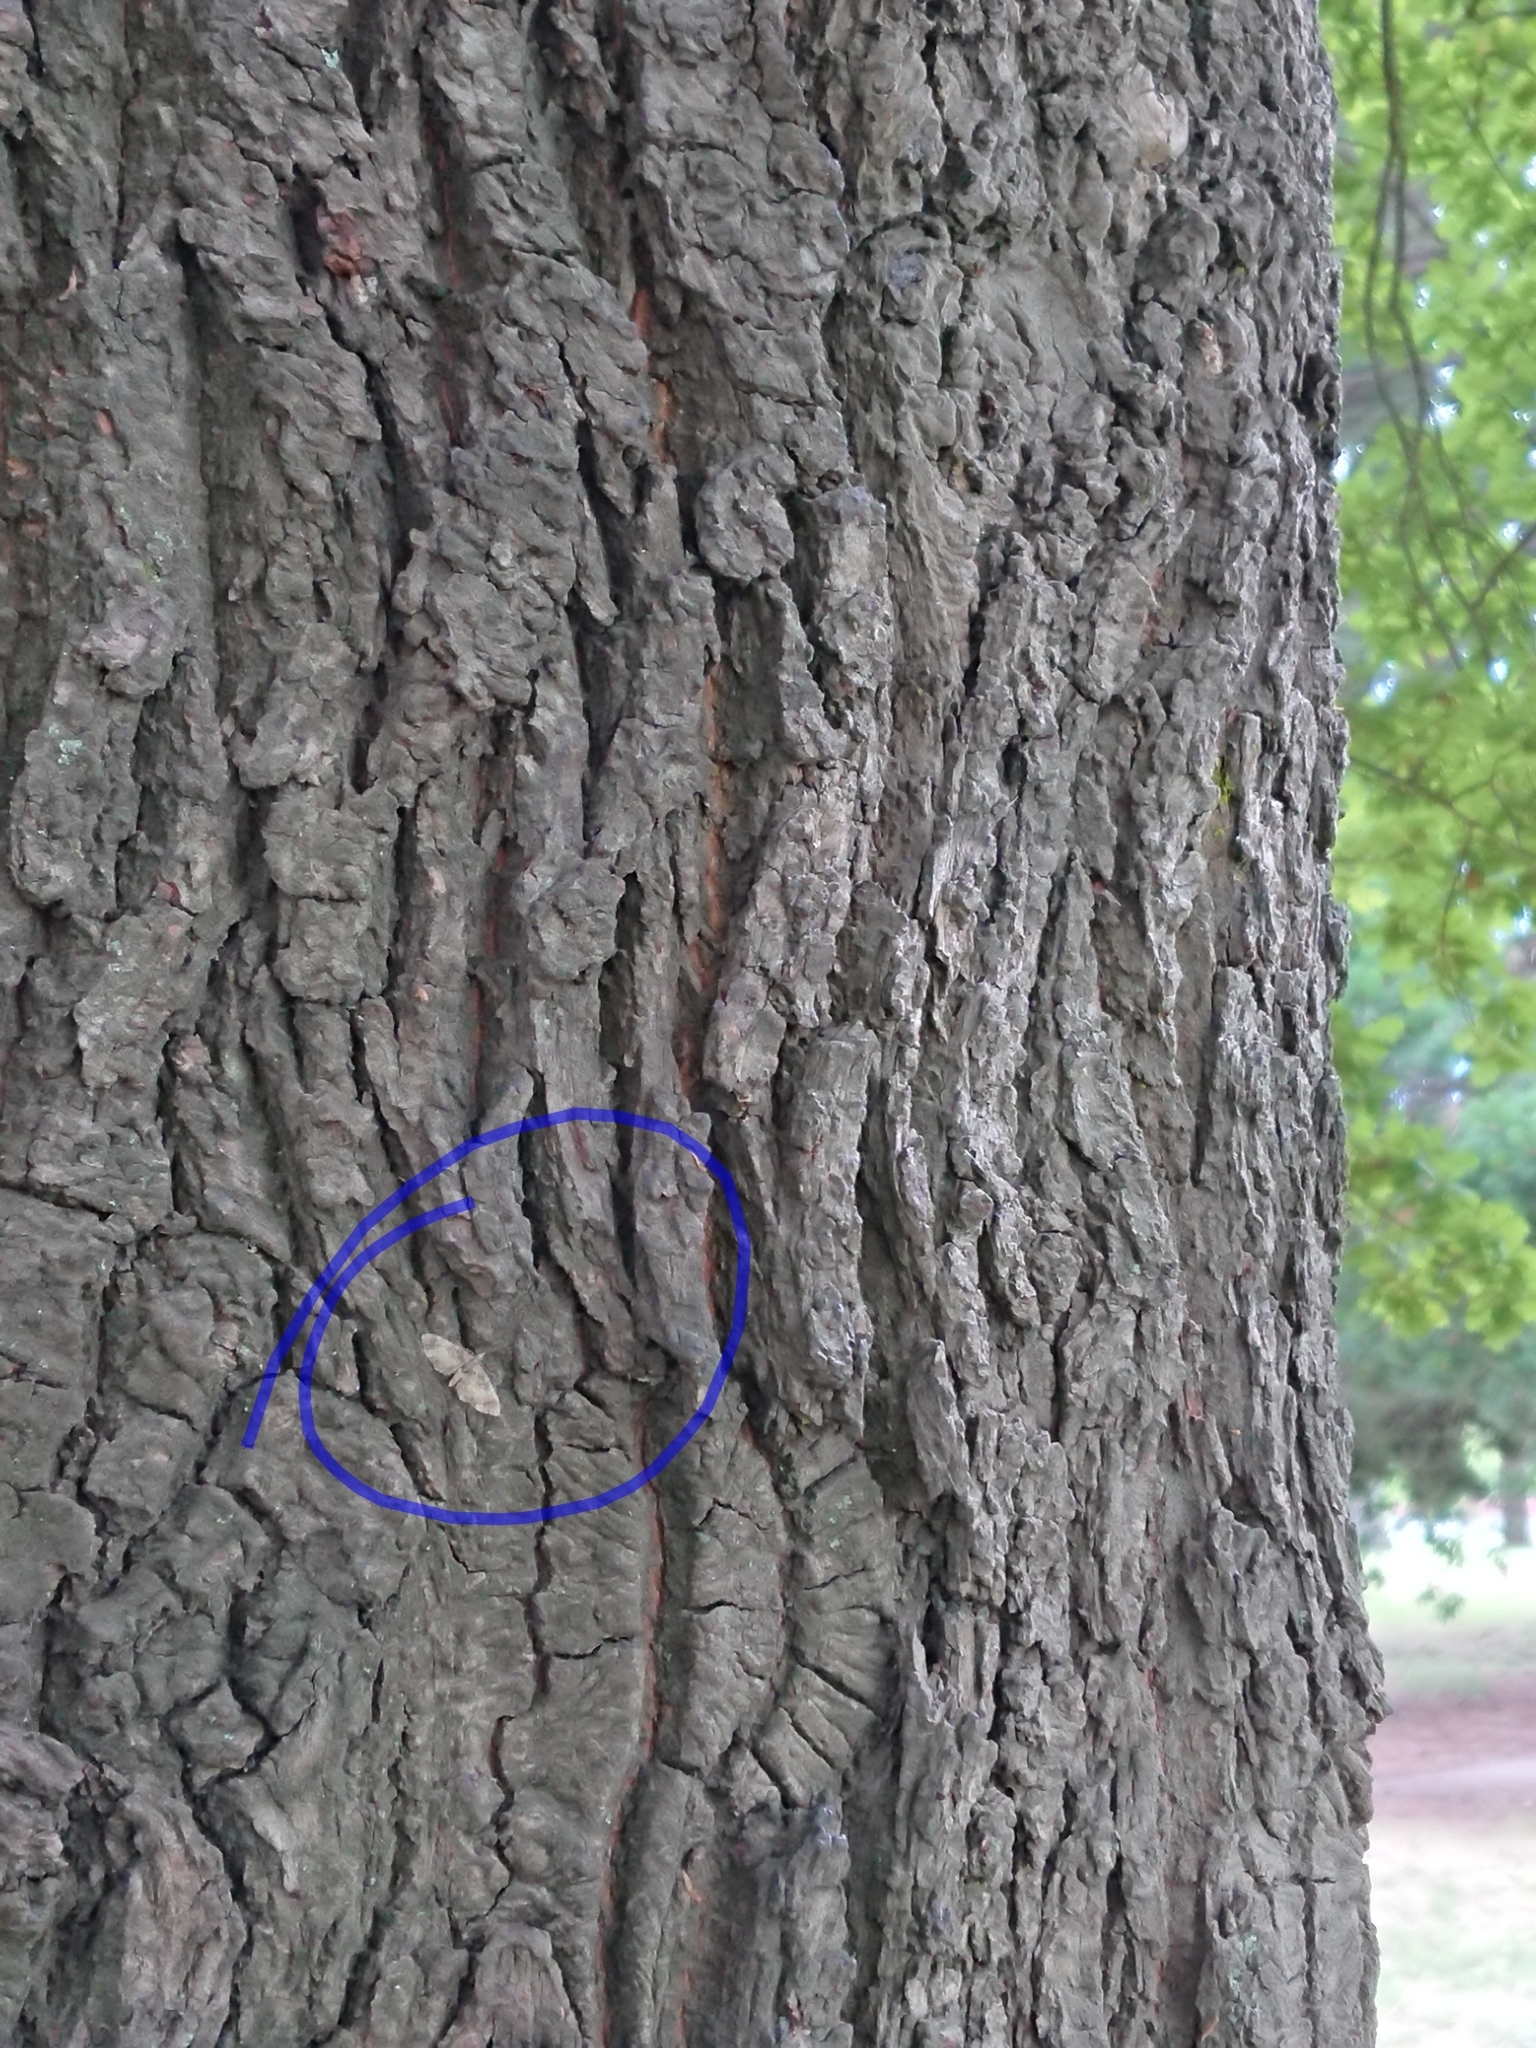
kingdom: Animalia
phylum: Arthropoda
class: Insecta
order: Lepidoptera
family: Geometridae
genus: Idaea
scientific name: Idaea mutanda
